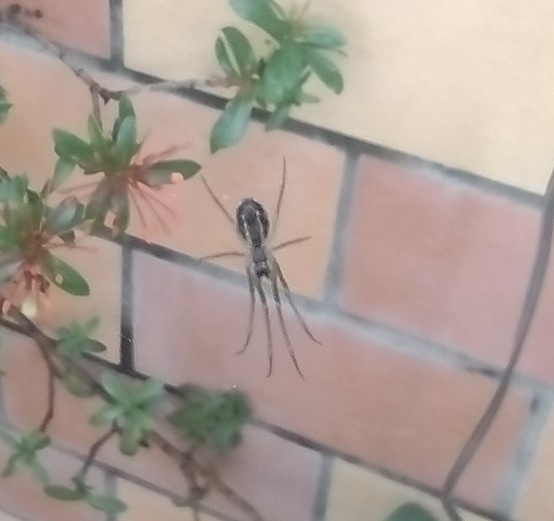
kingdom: Animalia
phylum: Arthropoda
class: Arachnida
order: Araneae
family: Tetragnathidae
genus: Leucauge
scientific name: Leucauge volupis
